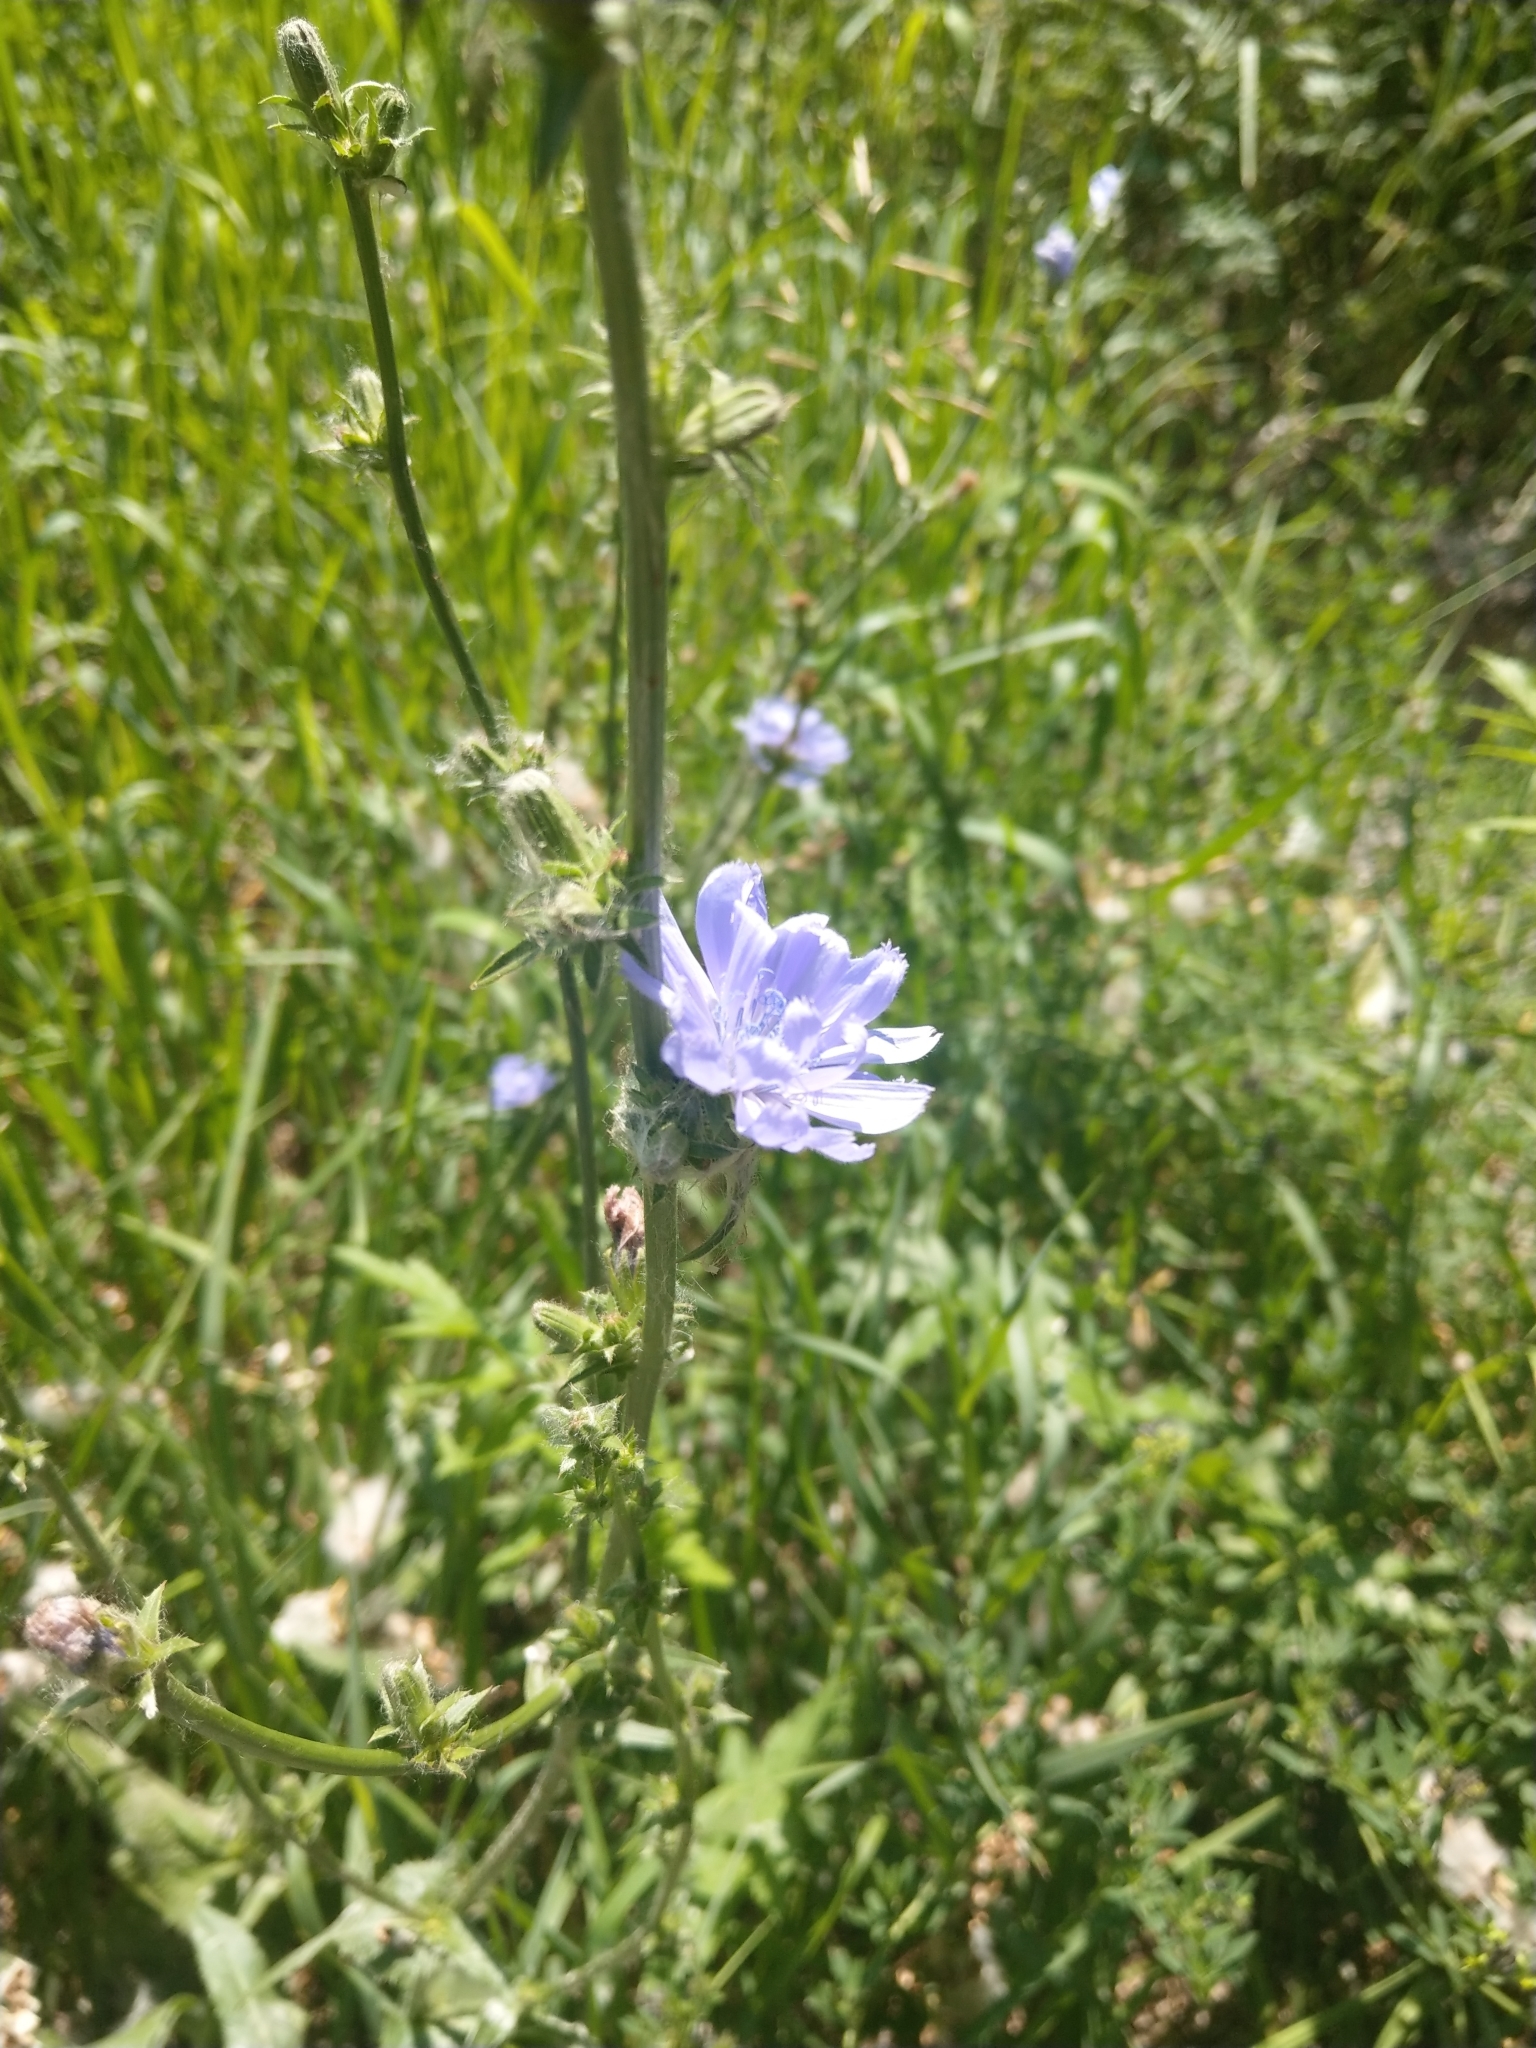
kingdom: Plantae
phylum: Tracheophyta
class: Magnoliopsida
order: Asterales
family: Asteraceae
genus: Cichorium
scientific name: Cichorium intybus
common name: Chicory
